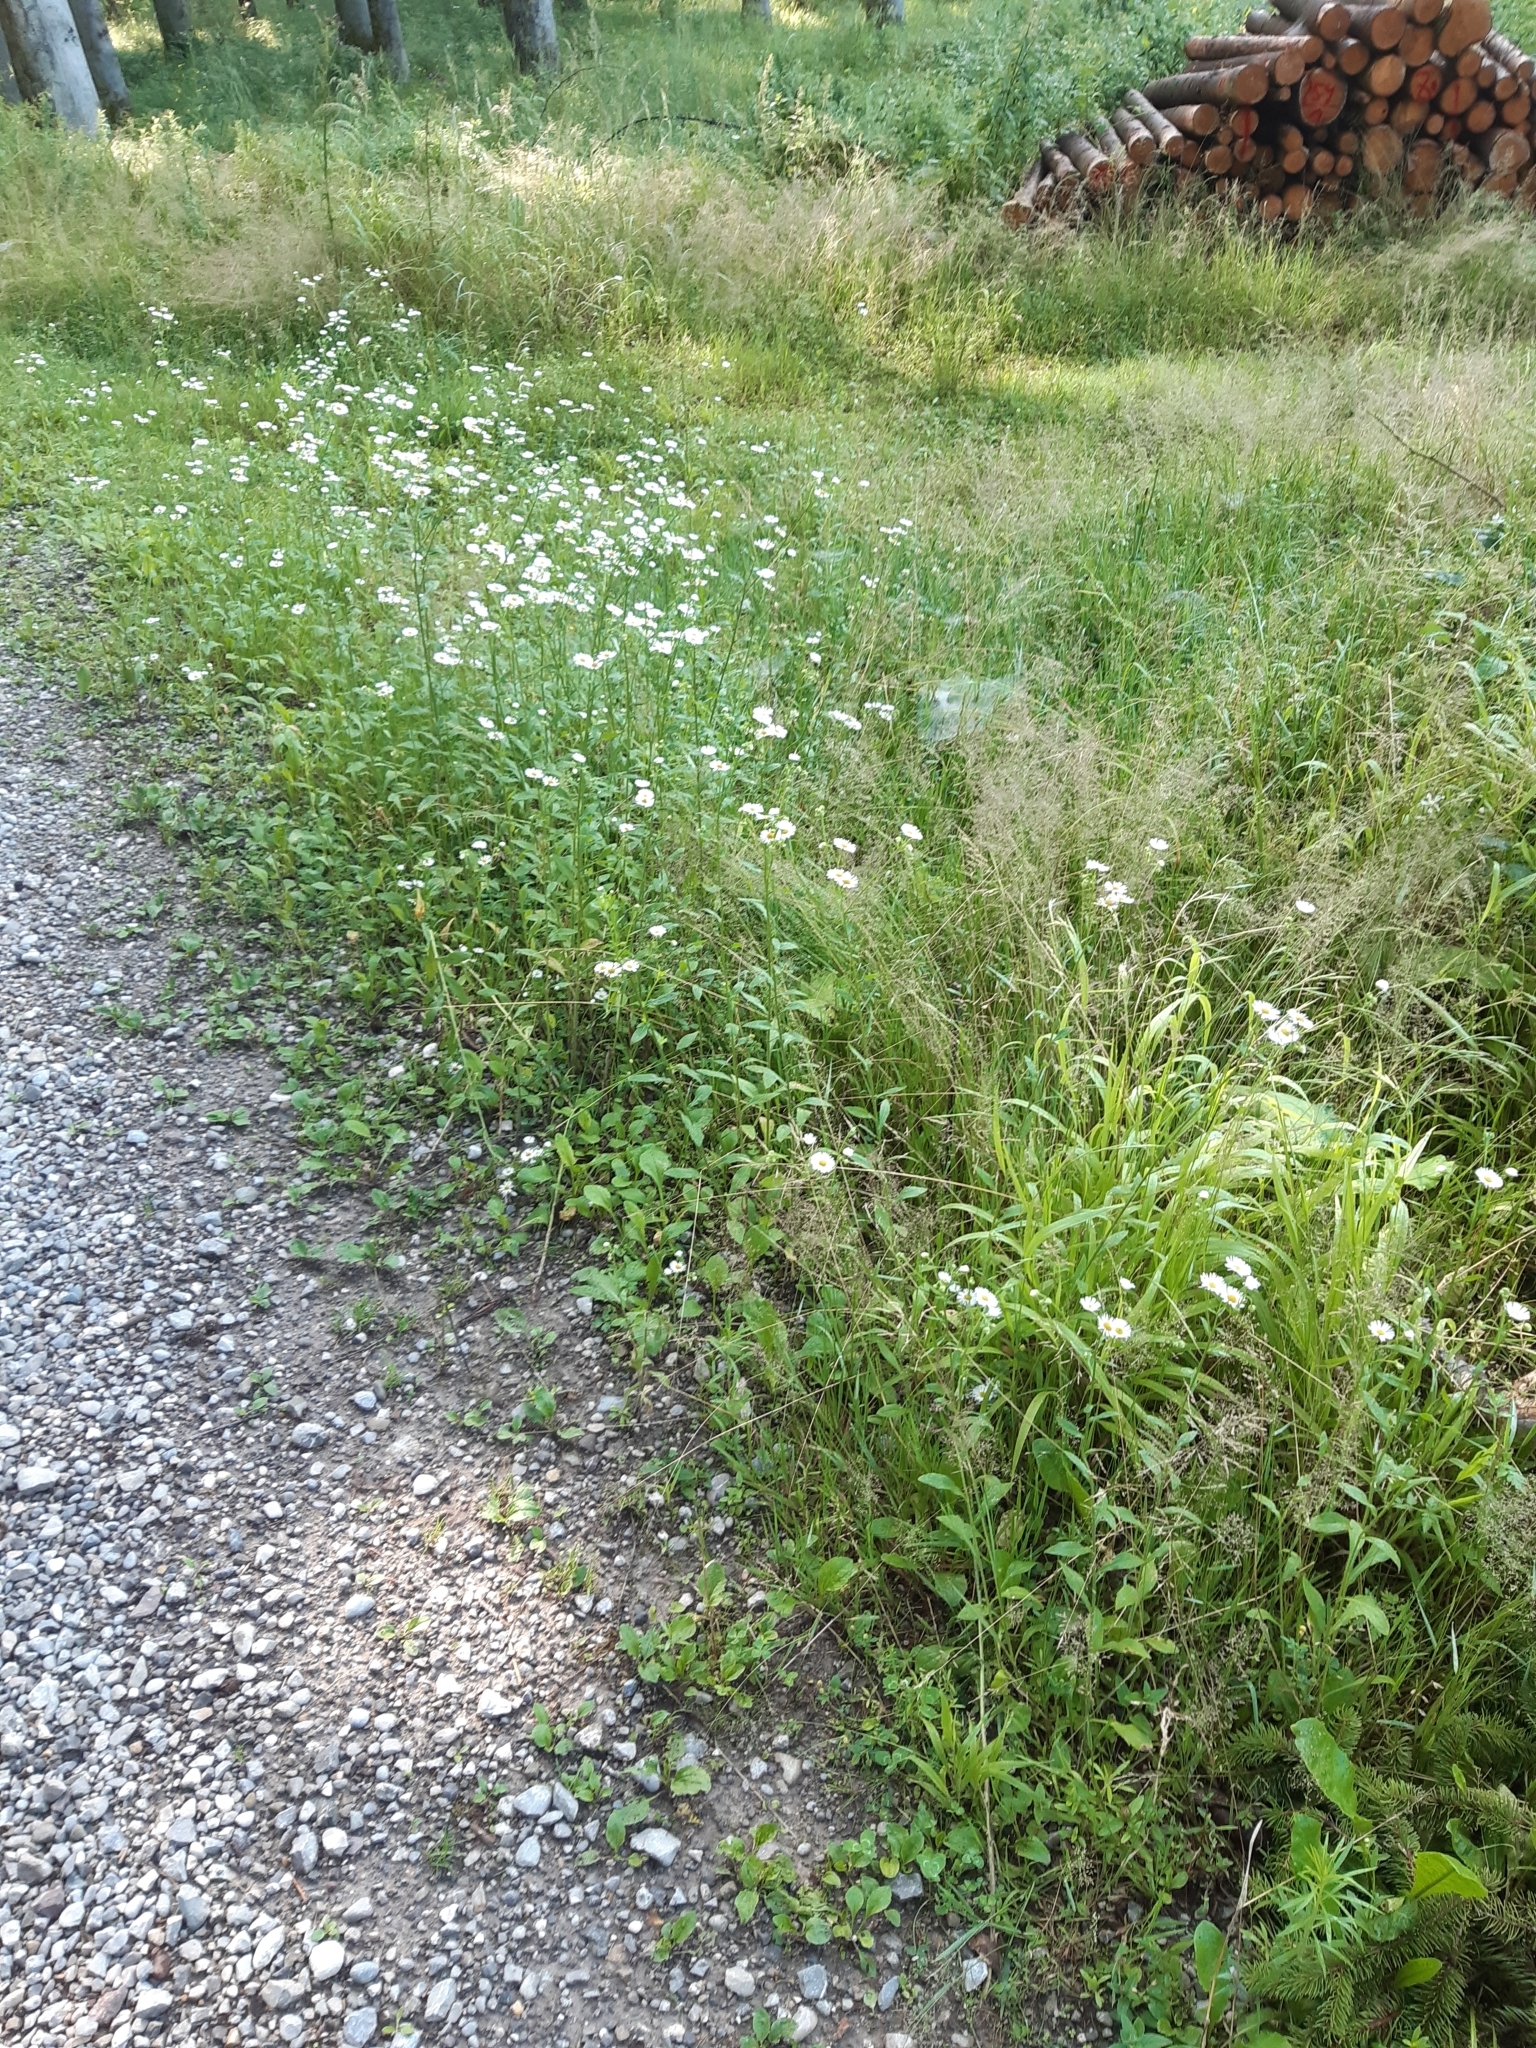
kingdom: Plantae
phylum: Tracheophyta
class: Magnoliopsida
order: Asterales
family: Asteraceae
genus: Erigeron
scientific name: Erigeron annuus
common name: Tall fleabane
